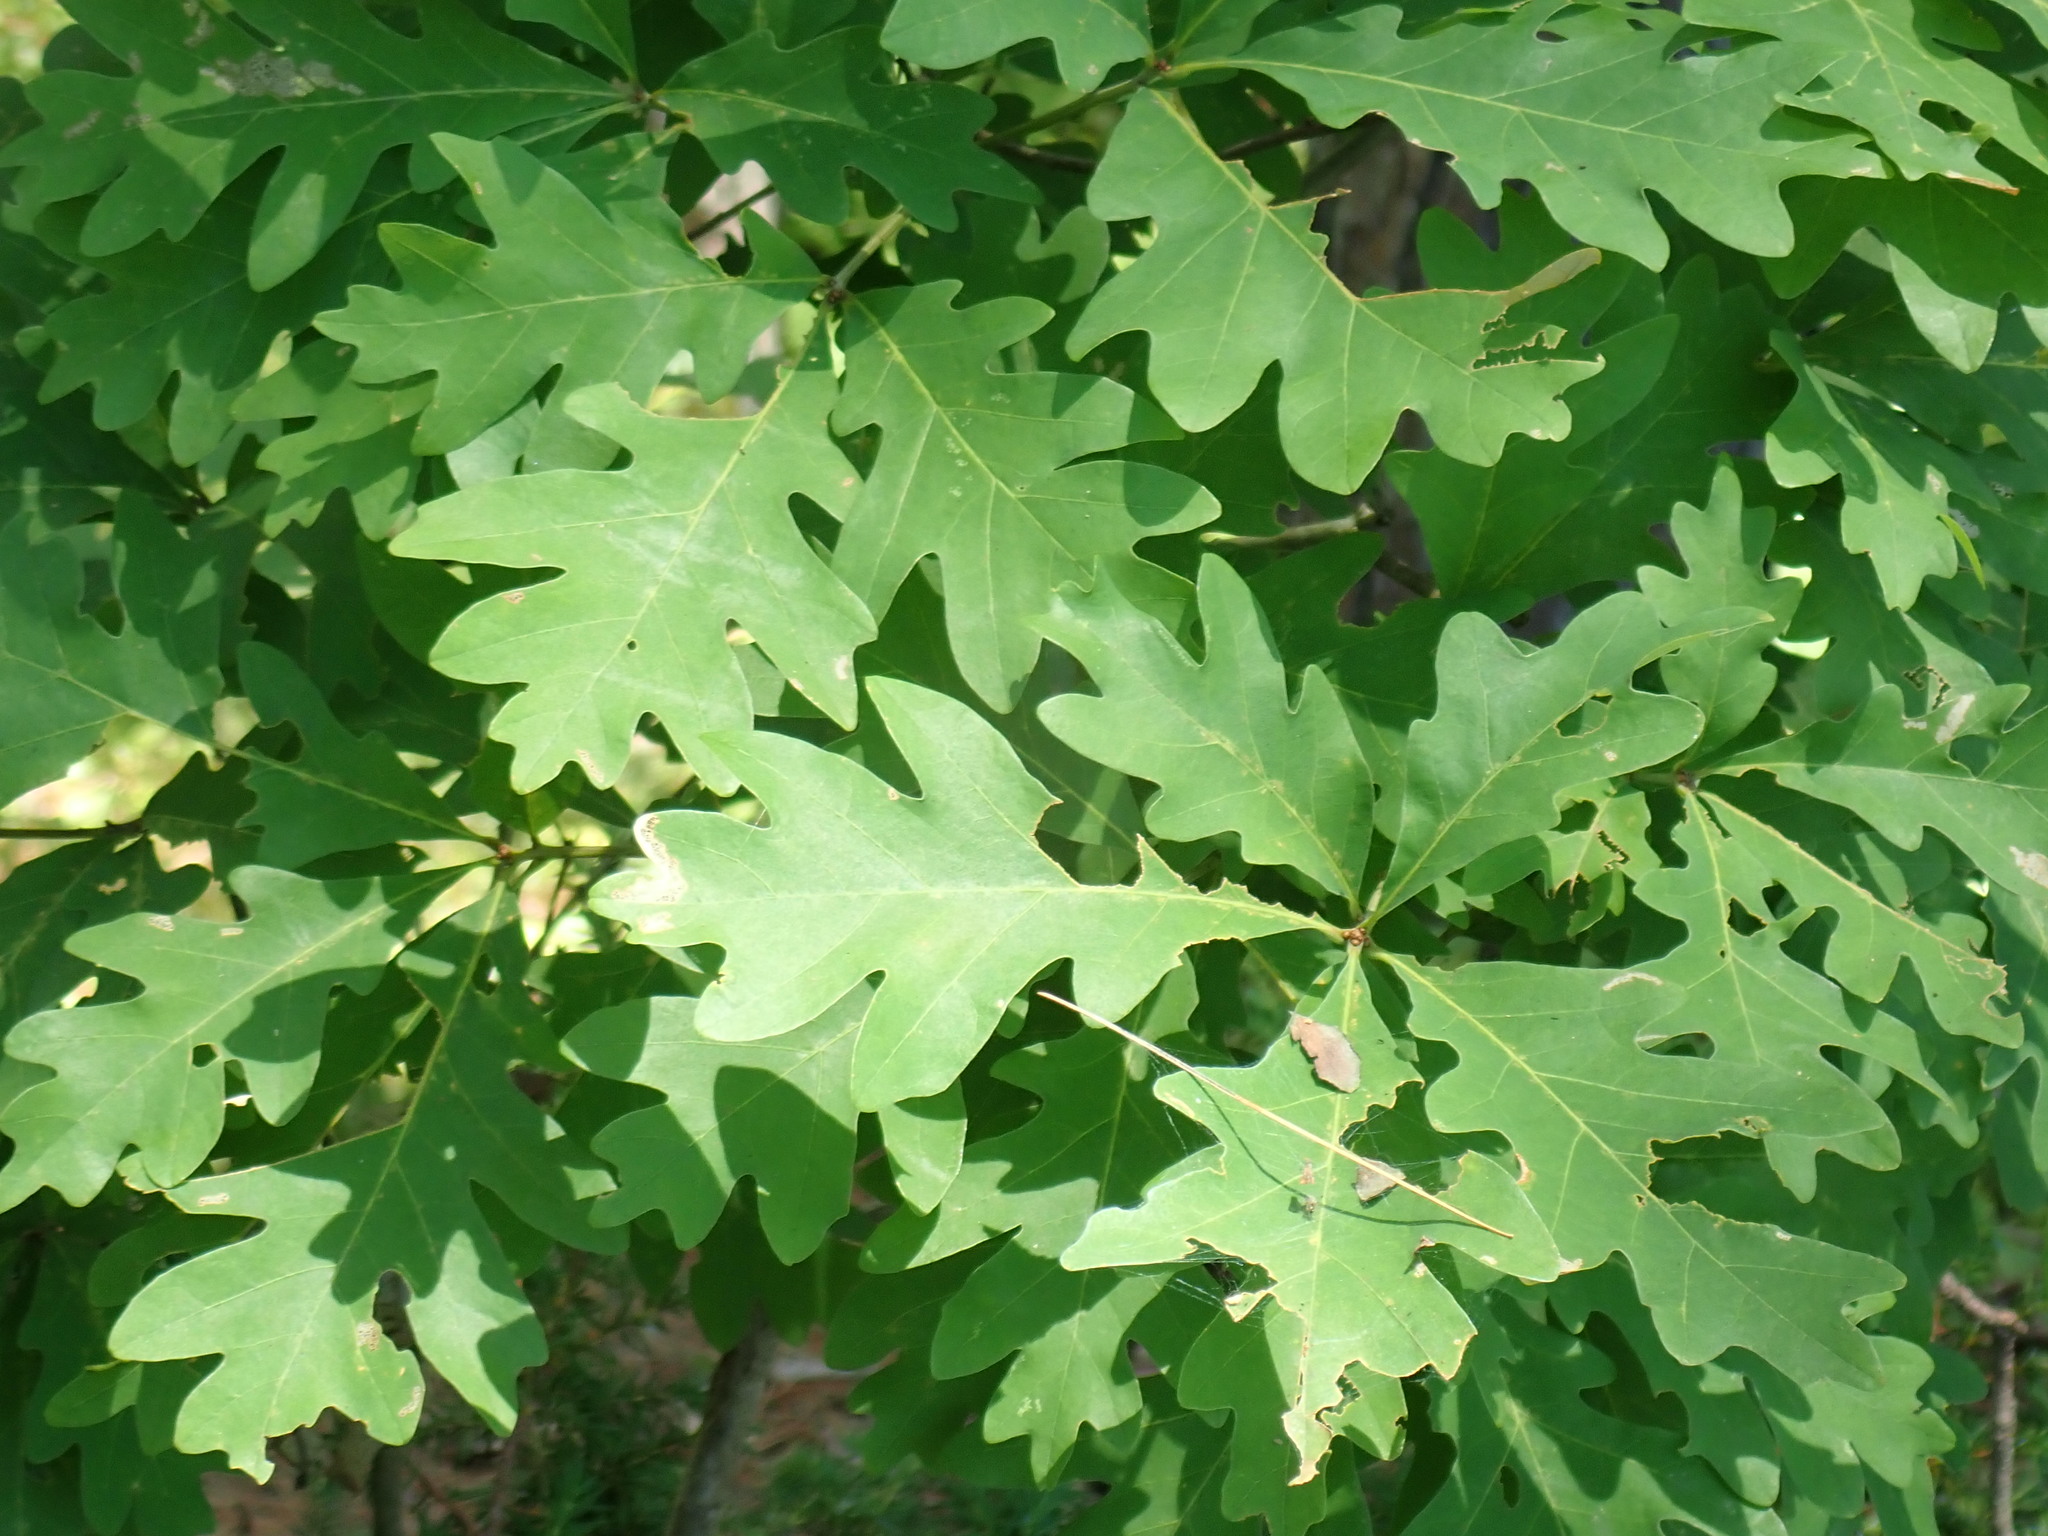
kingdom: Plantae
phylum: Tracheophyta
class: Magnoliopsida
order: Fagales
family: Fagaceae
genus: Quercus
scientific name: Quercus alba
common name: White oak
